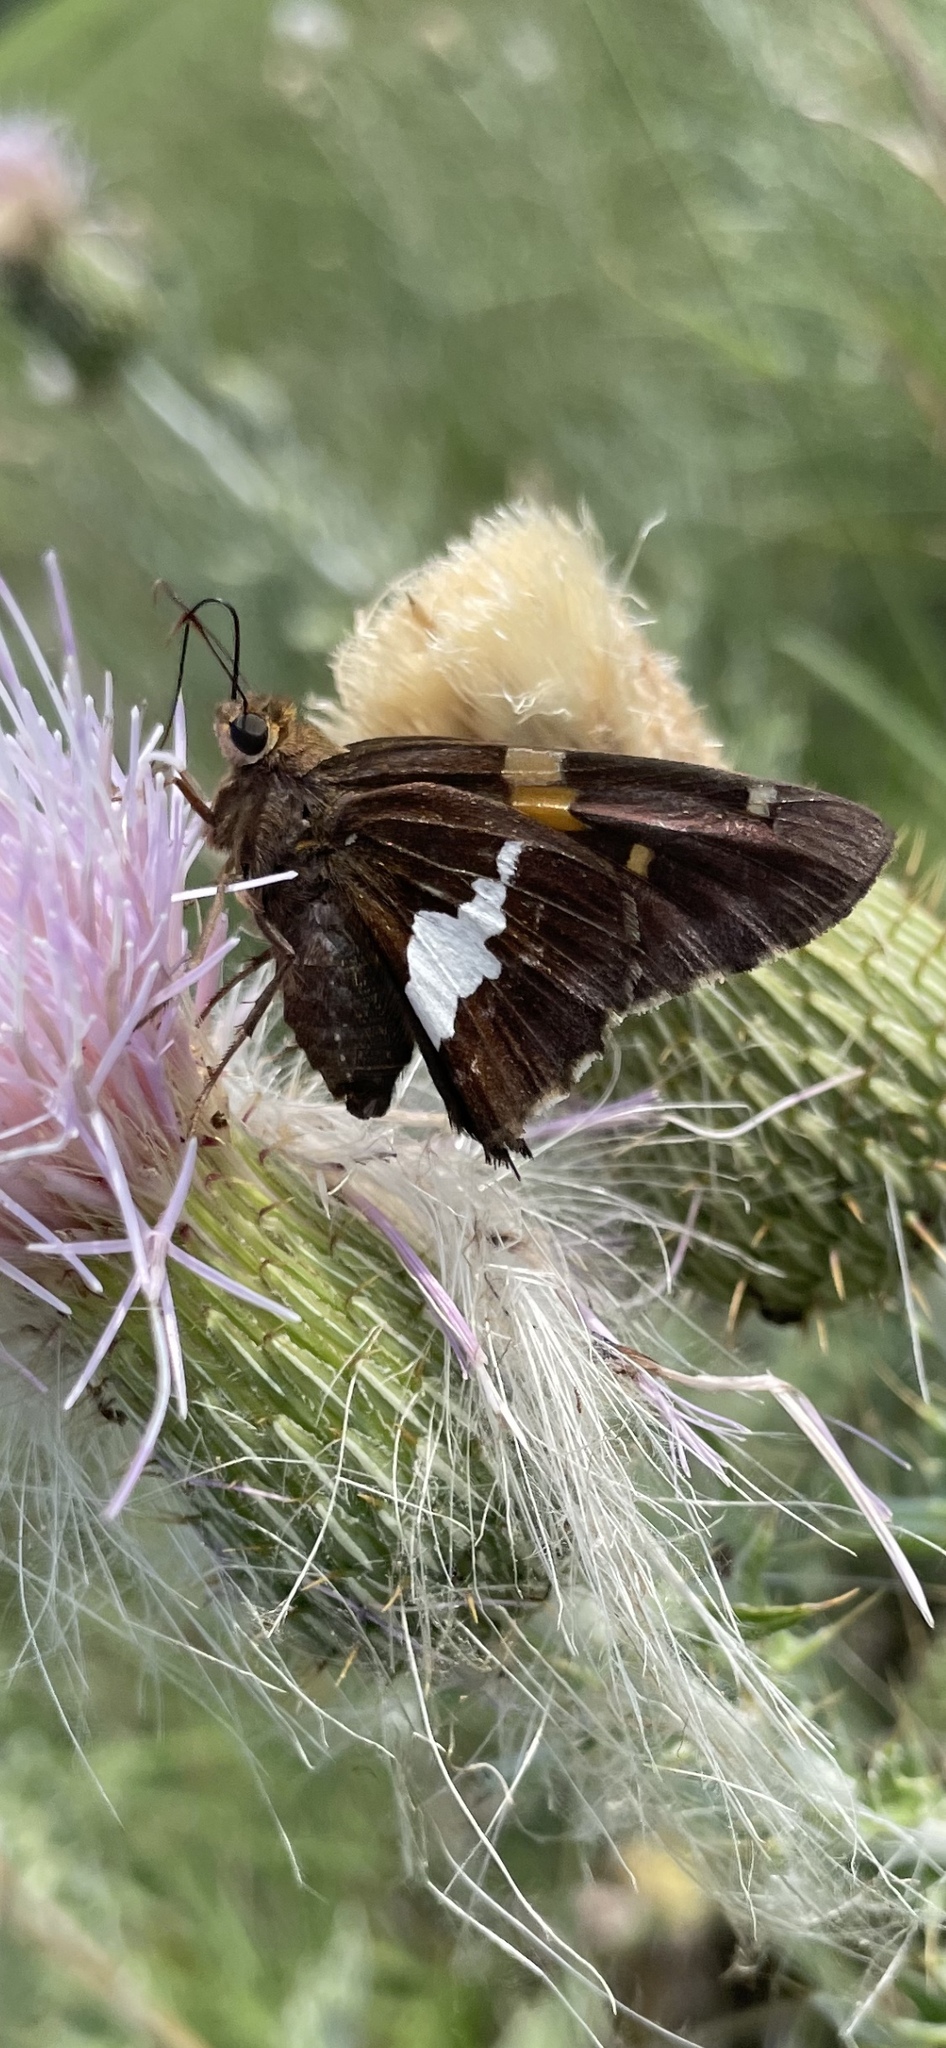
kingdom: Animalia
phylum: Arthropoda
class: Insecta
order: Lepidoptera
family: Hesperiidae
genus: Epargyreus
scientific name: Epargyreus clarus
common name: Silver-spotted skipper
